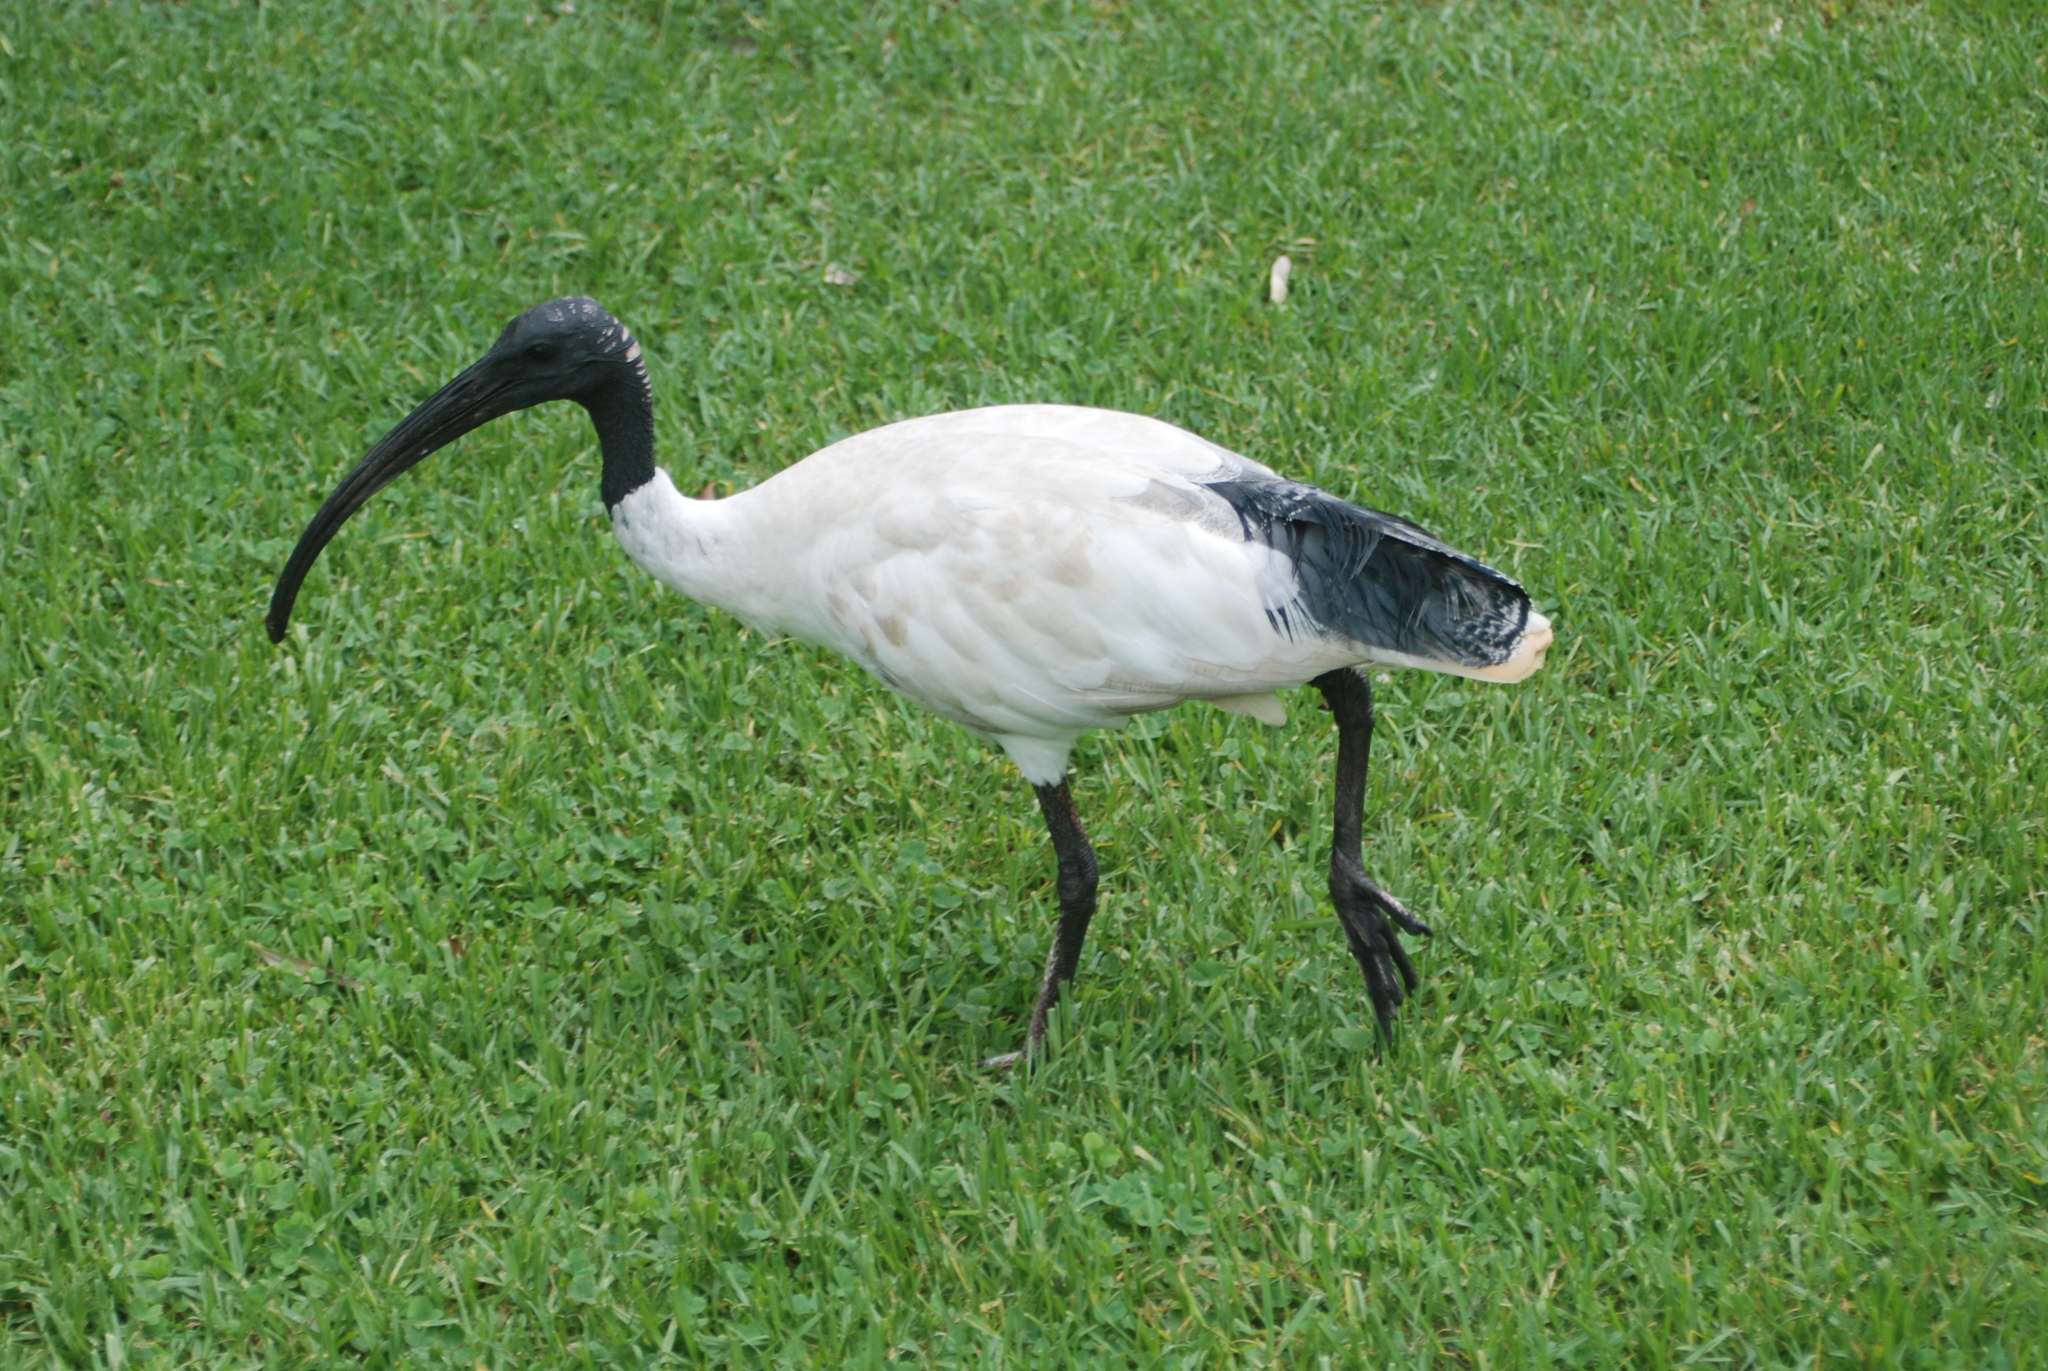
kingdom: Animalia
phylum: Chordata
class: Aves
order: Pelecaniformes
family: Threskiornithidae
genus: Threskiornis
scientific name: Threskiornis molucca
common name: Australian white ibis
